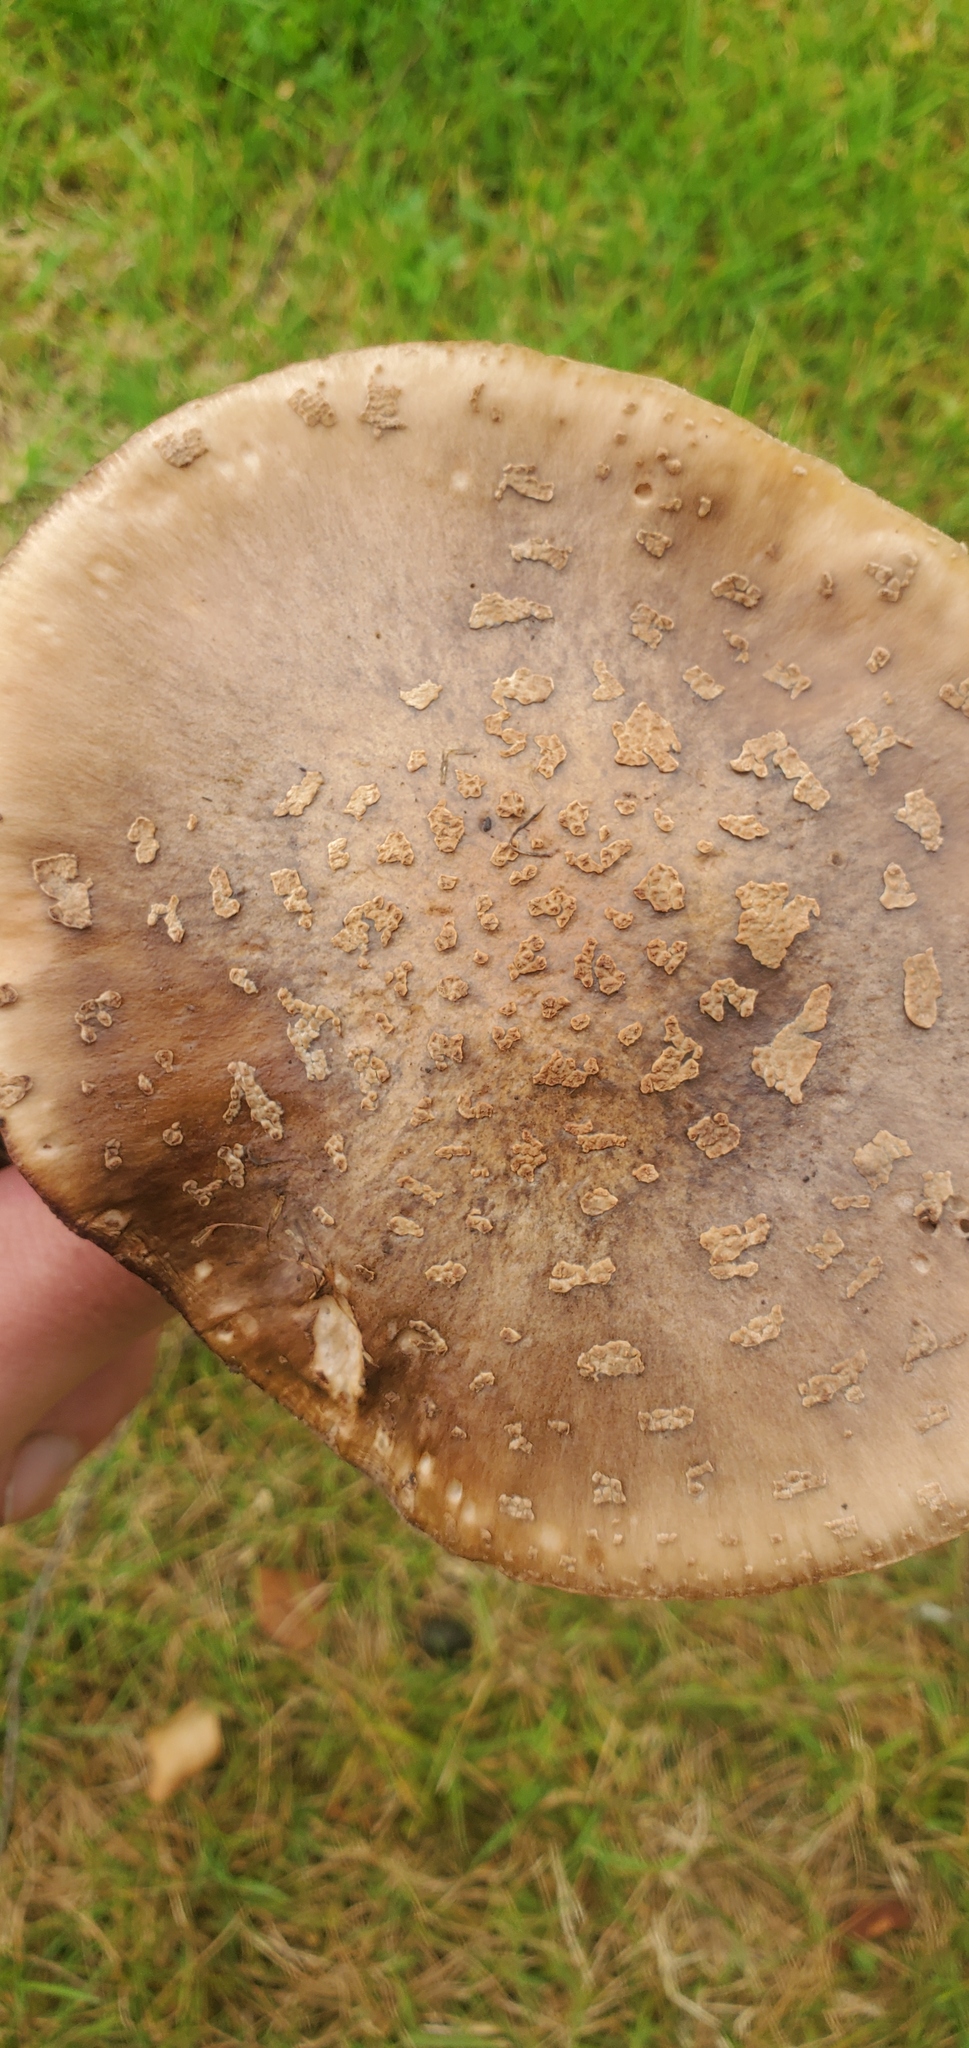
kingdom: Fungi
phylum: Basidiomycota
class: Agaricomycetes
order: Agaricales
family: Amanitaceae
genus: Amanita
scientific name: Amanita rubescens
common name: Blusher
